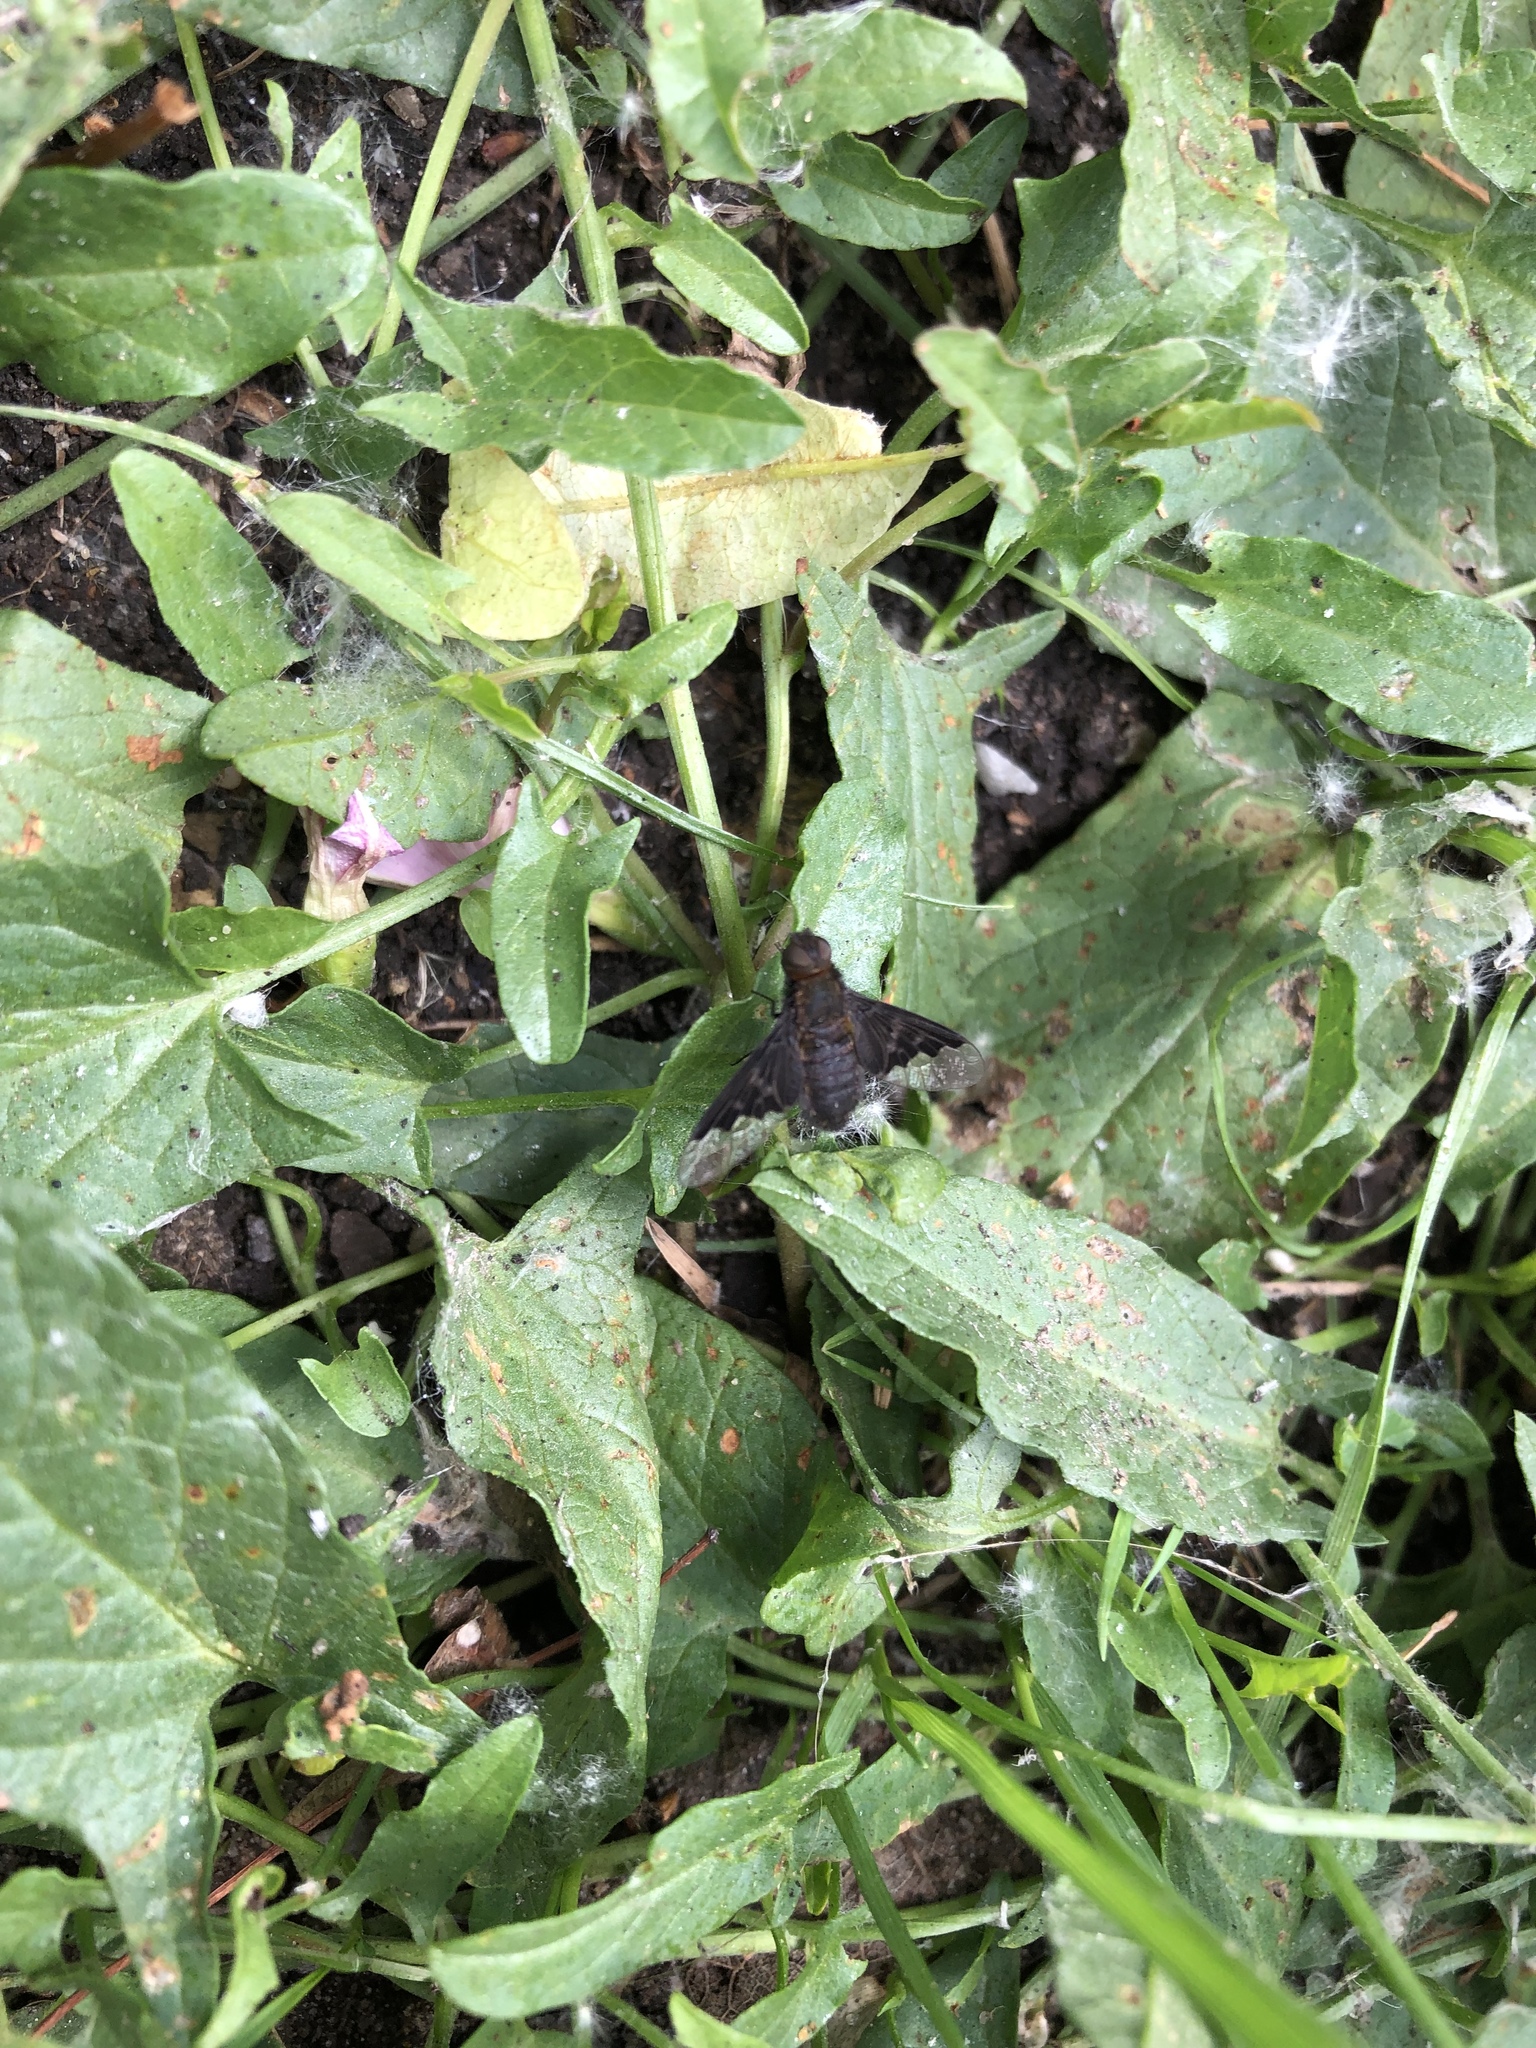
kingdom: Animalia
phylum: Arthropoda
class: Insecta
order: Diptera
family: Bombyliidae
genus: Hemipenthes
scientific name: Hemipenthes morio
